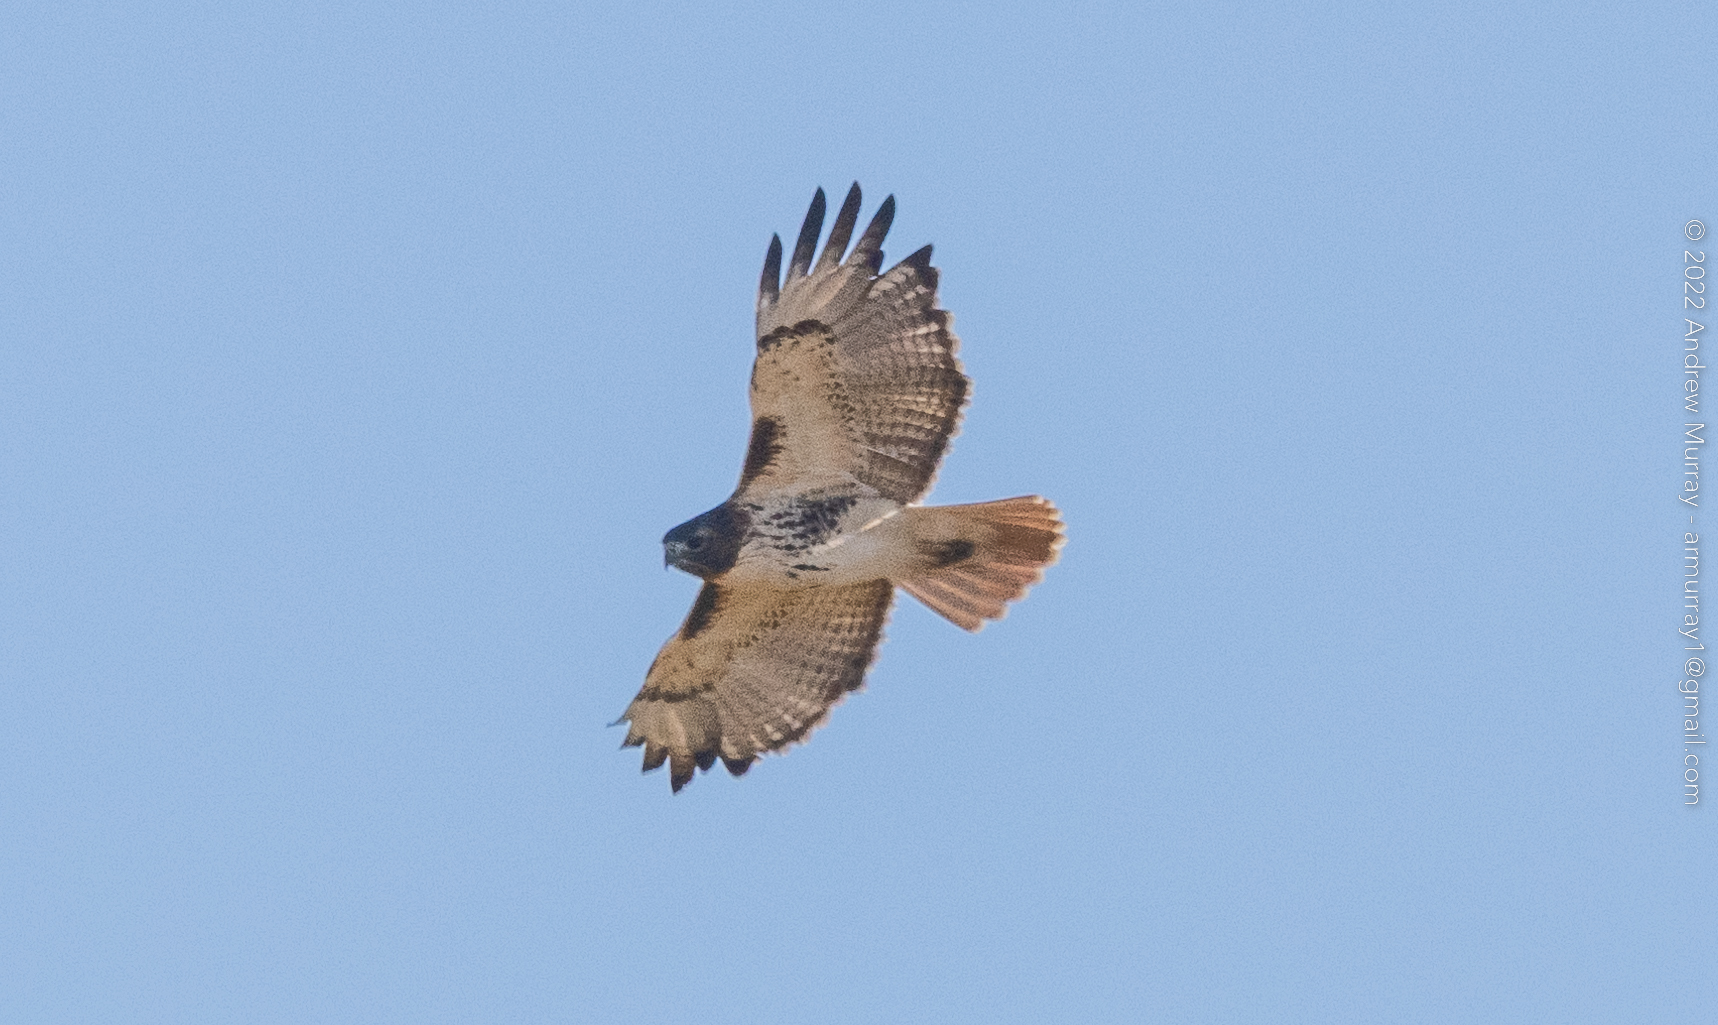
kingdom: Animalia
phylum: Chordata
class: Aves
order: Accipitriformes
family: Accipitridae
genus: Buteo
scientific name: Buteo jamaicensis
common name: Red-tailed hawk
